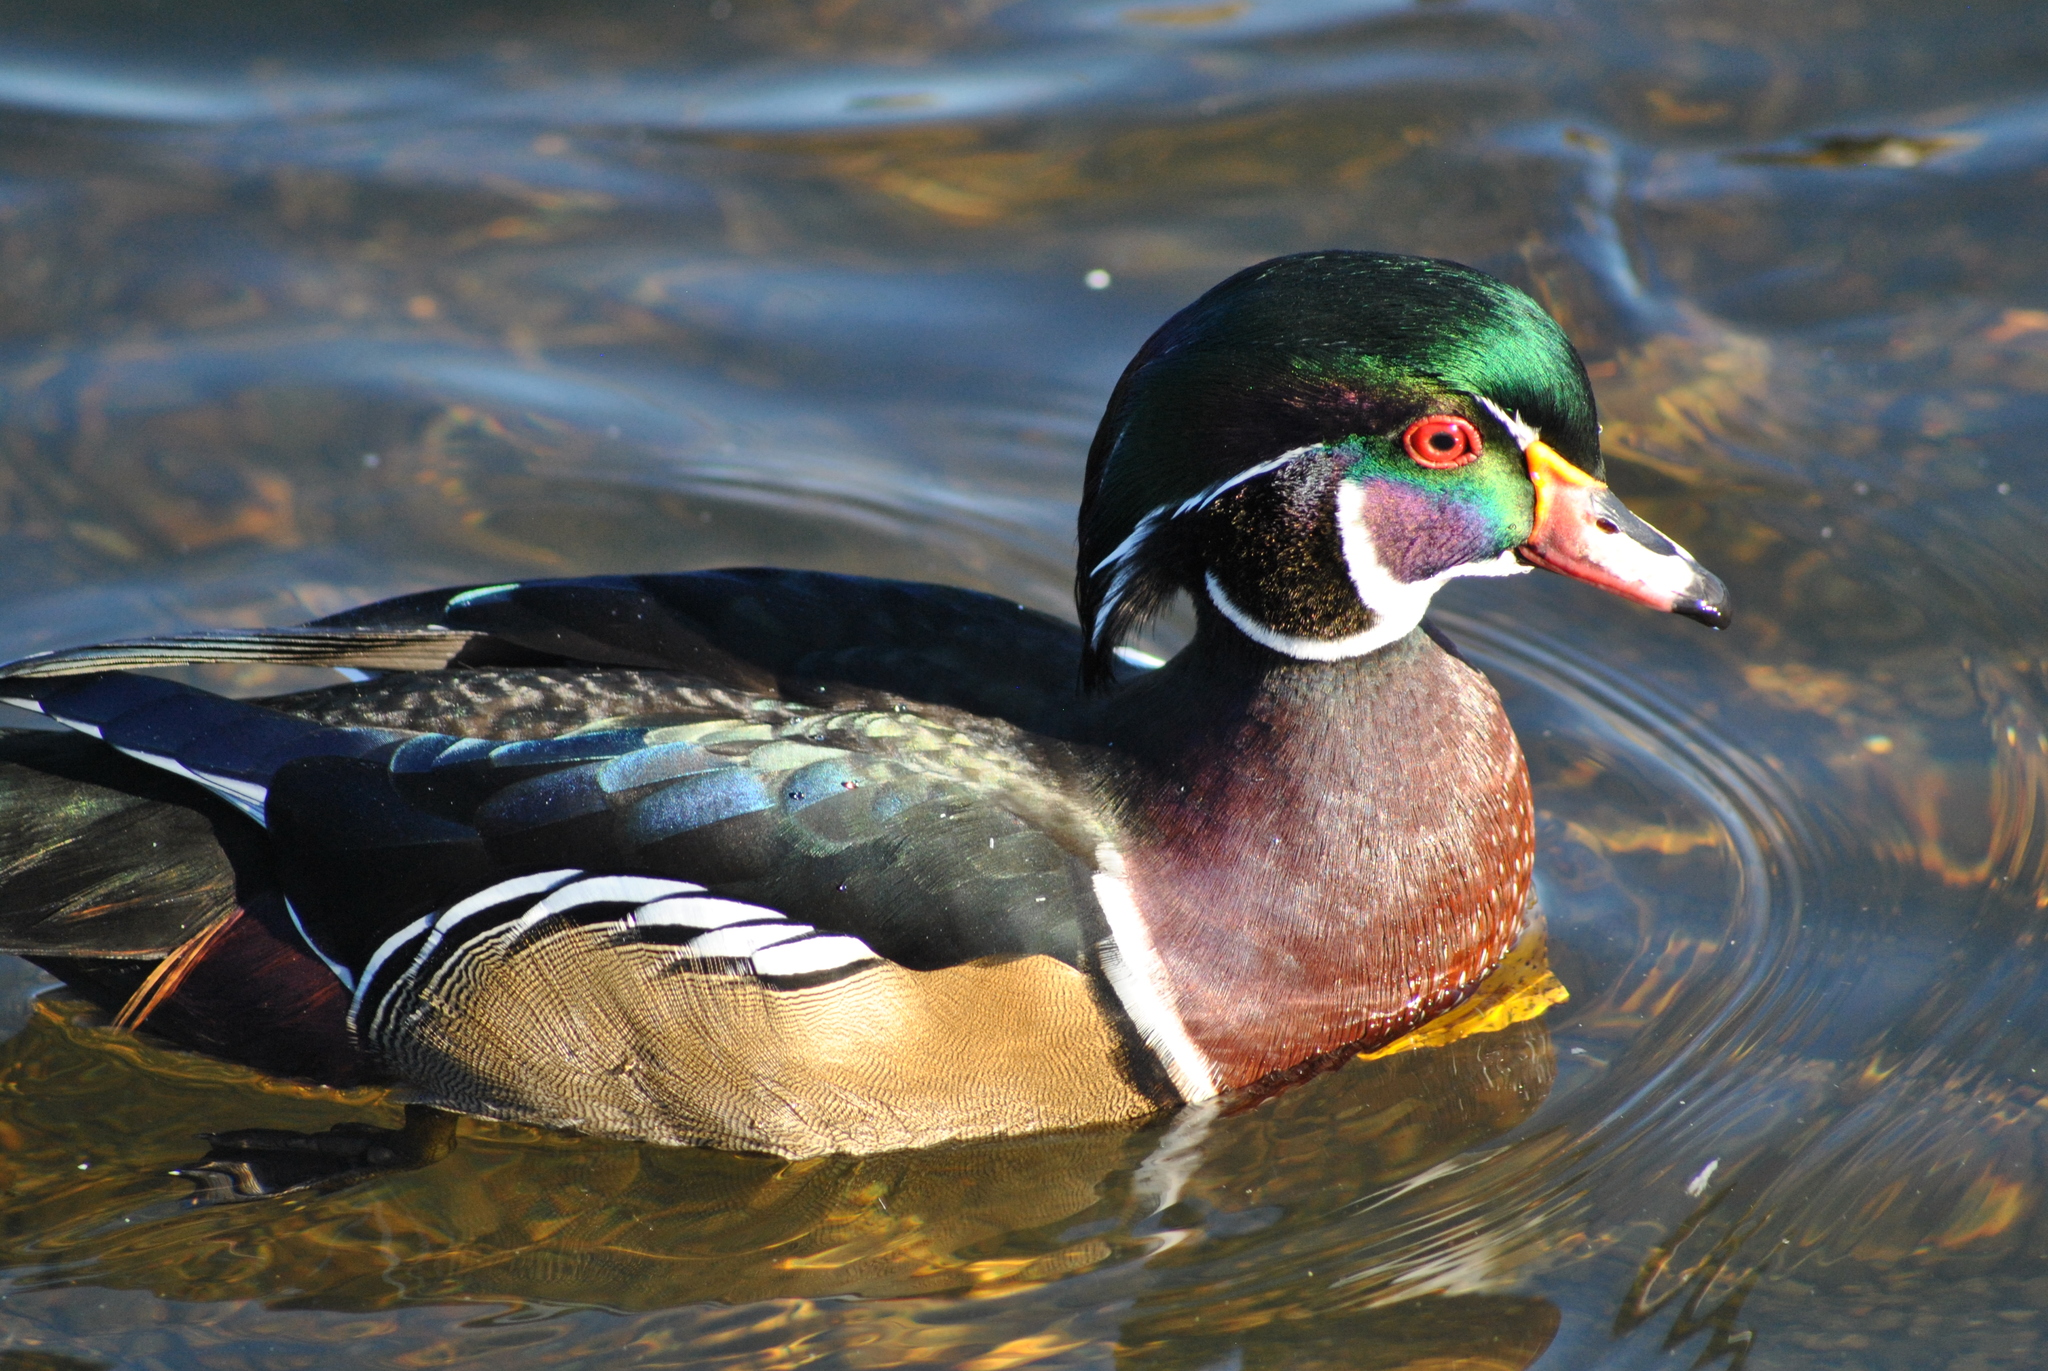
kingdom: Animalia
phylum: Chordata
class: Aves
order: Anseriformes
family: Anatidae
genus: Aix
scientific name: Aix sponsa
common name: Wood duck
